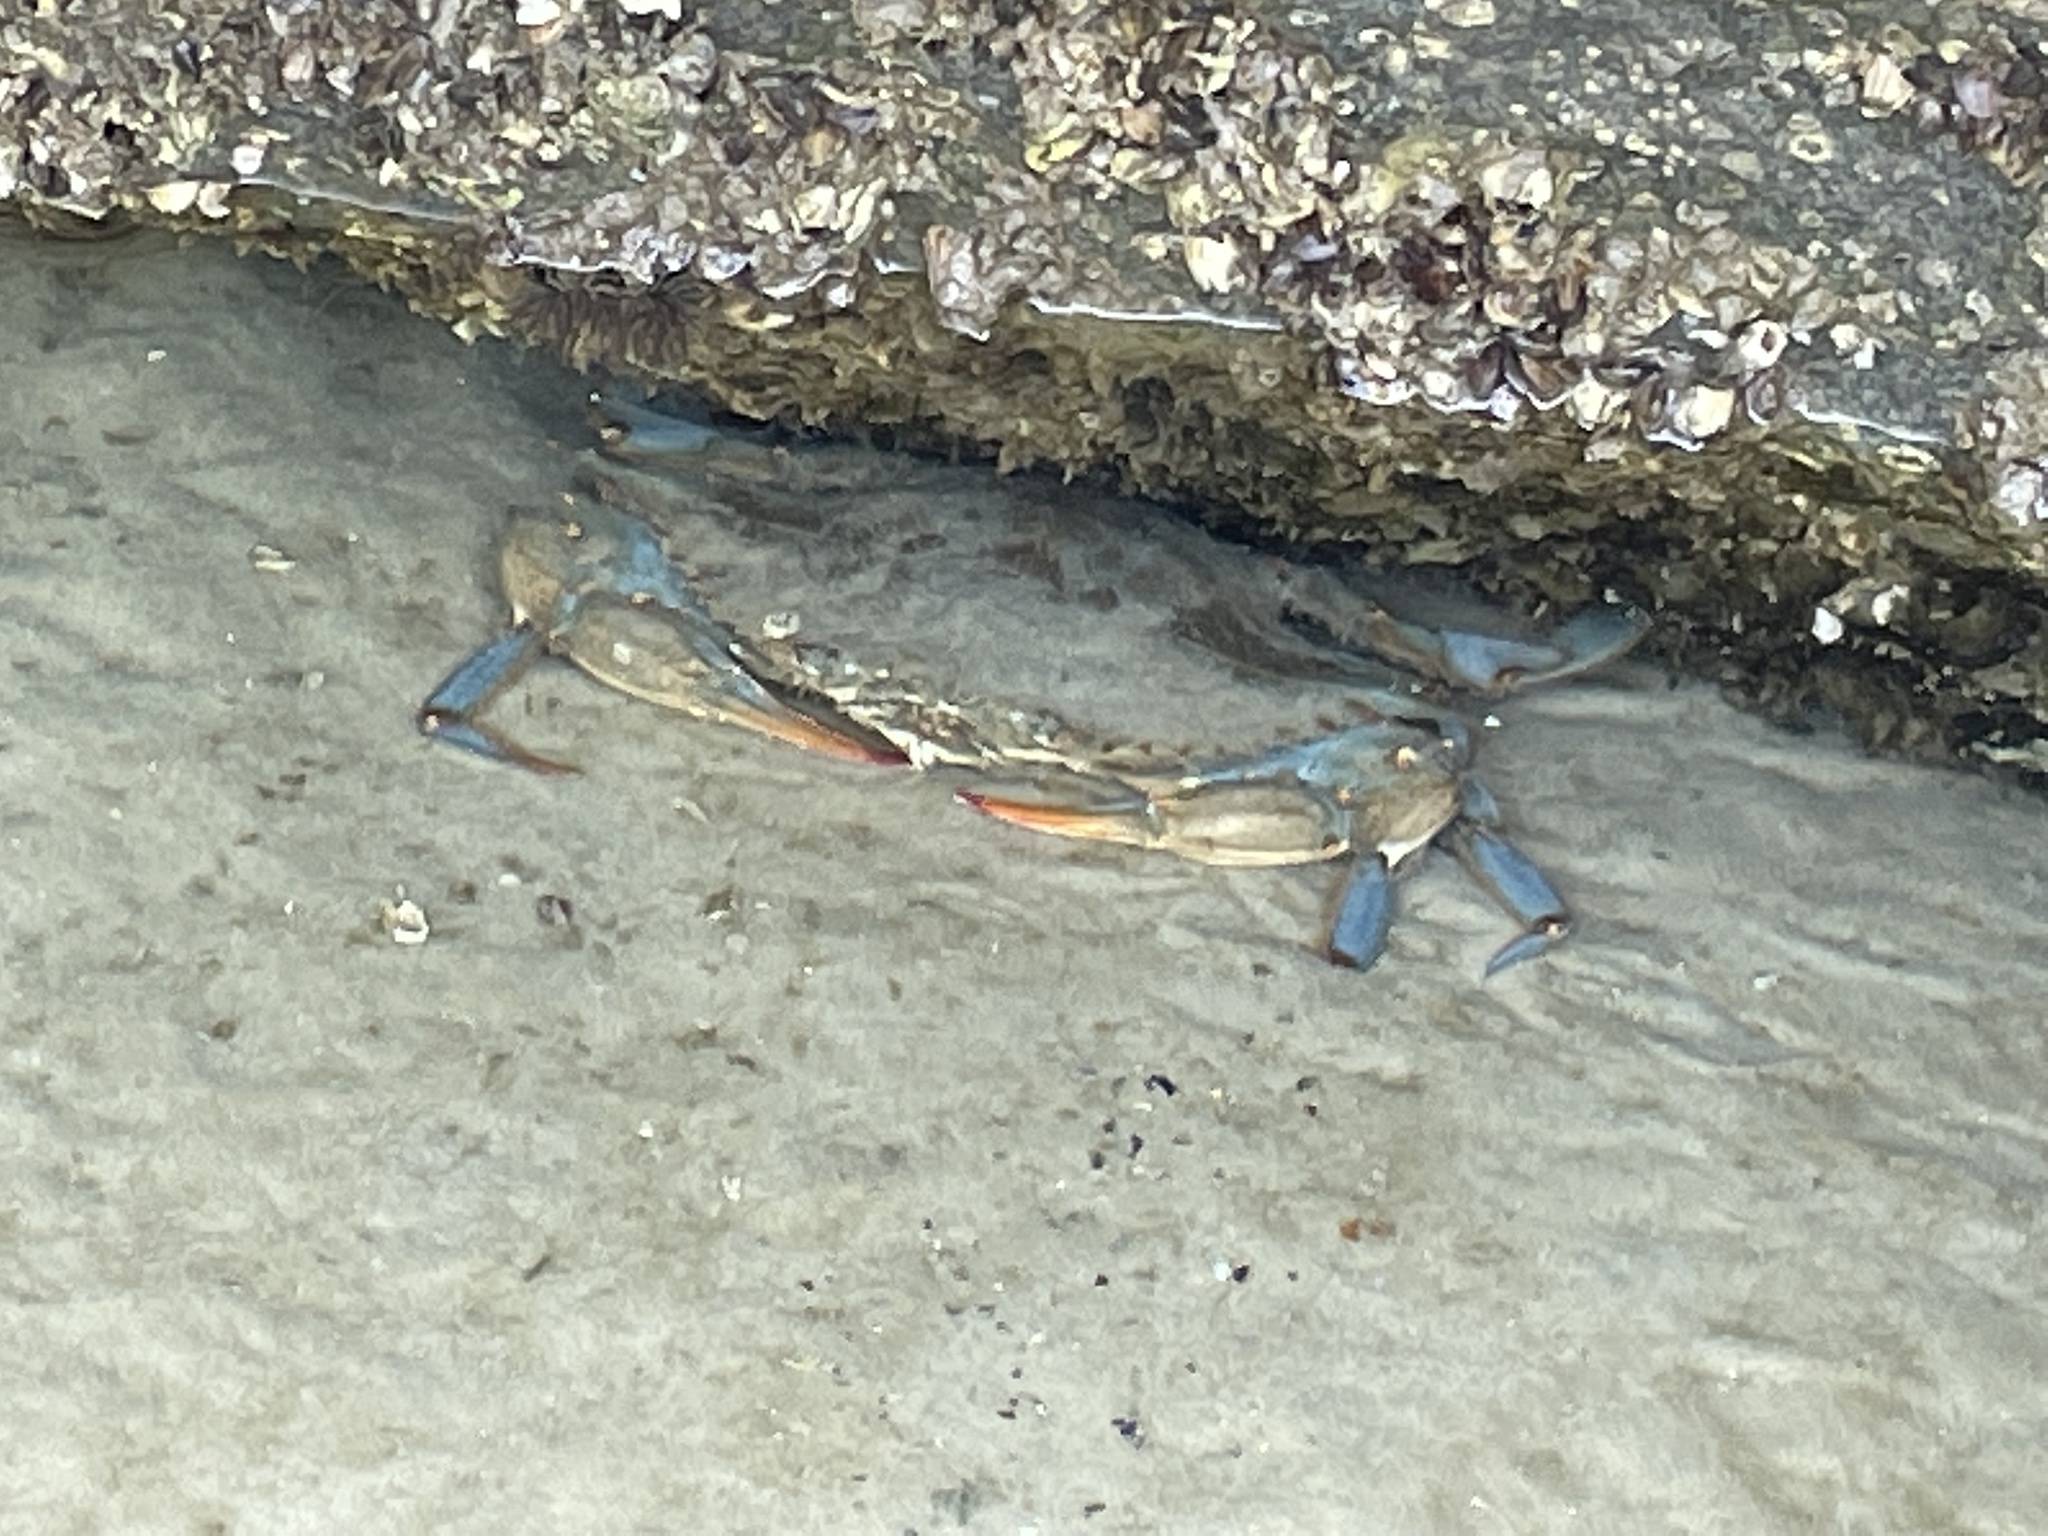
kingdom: Animalia
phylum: Arthropoda
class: Malacostraca
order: Decapoda
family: Portunidae
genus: Callinectes
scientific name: Callinectes sapidus
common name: Blue crab
